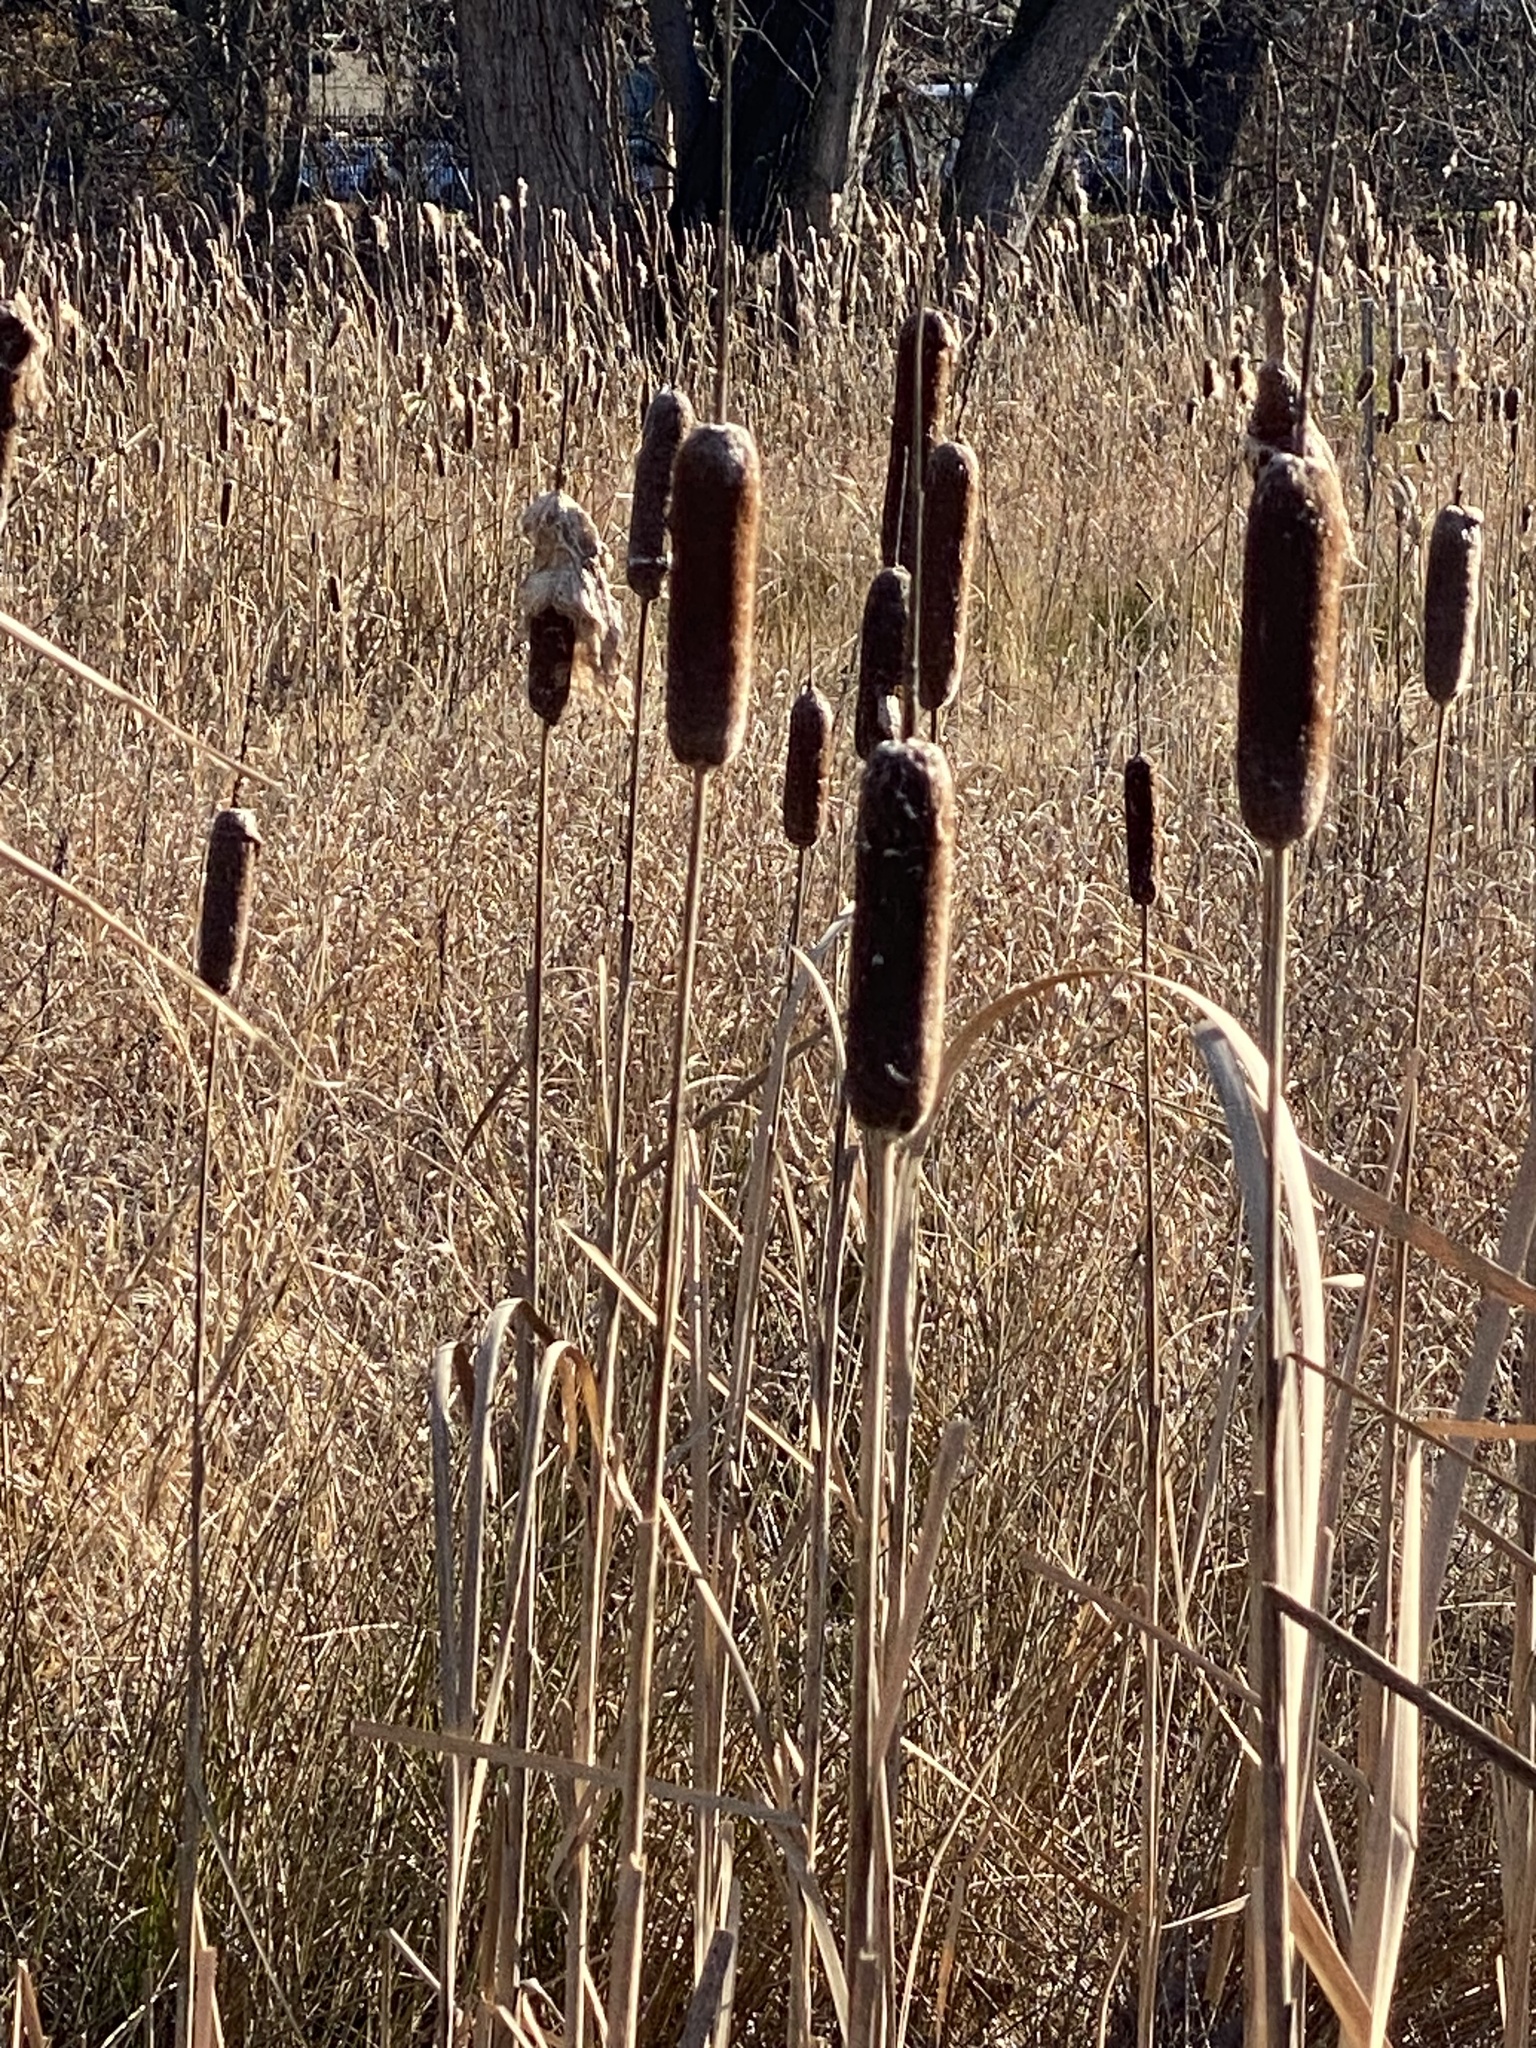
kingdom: Plantae
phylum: Tracheophyta
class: Liliopsida
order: Poales
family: Typhaceae
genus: Typha
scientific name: Typha
